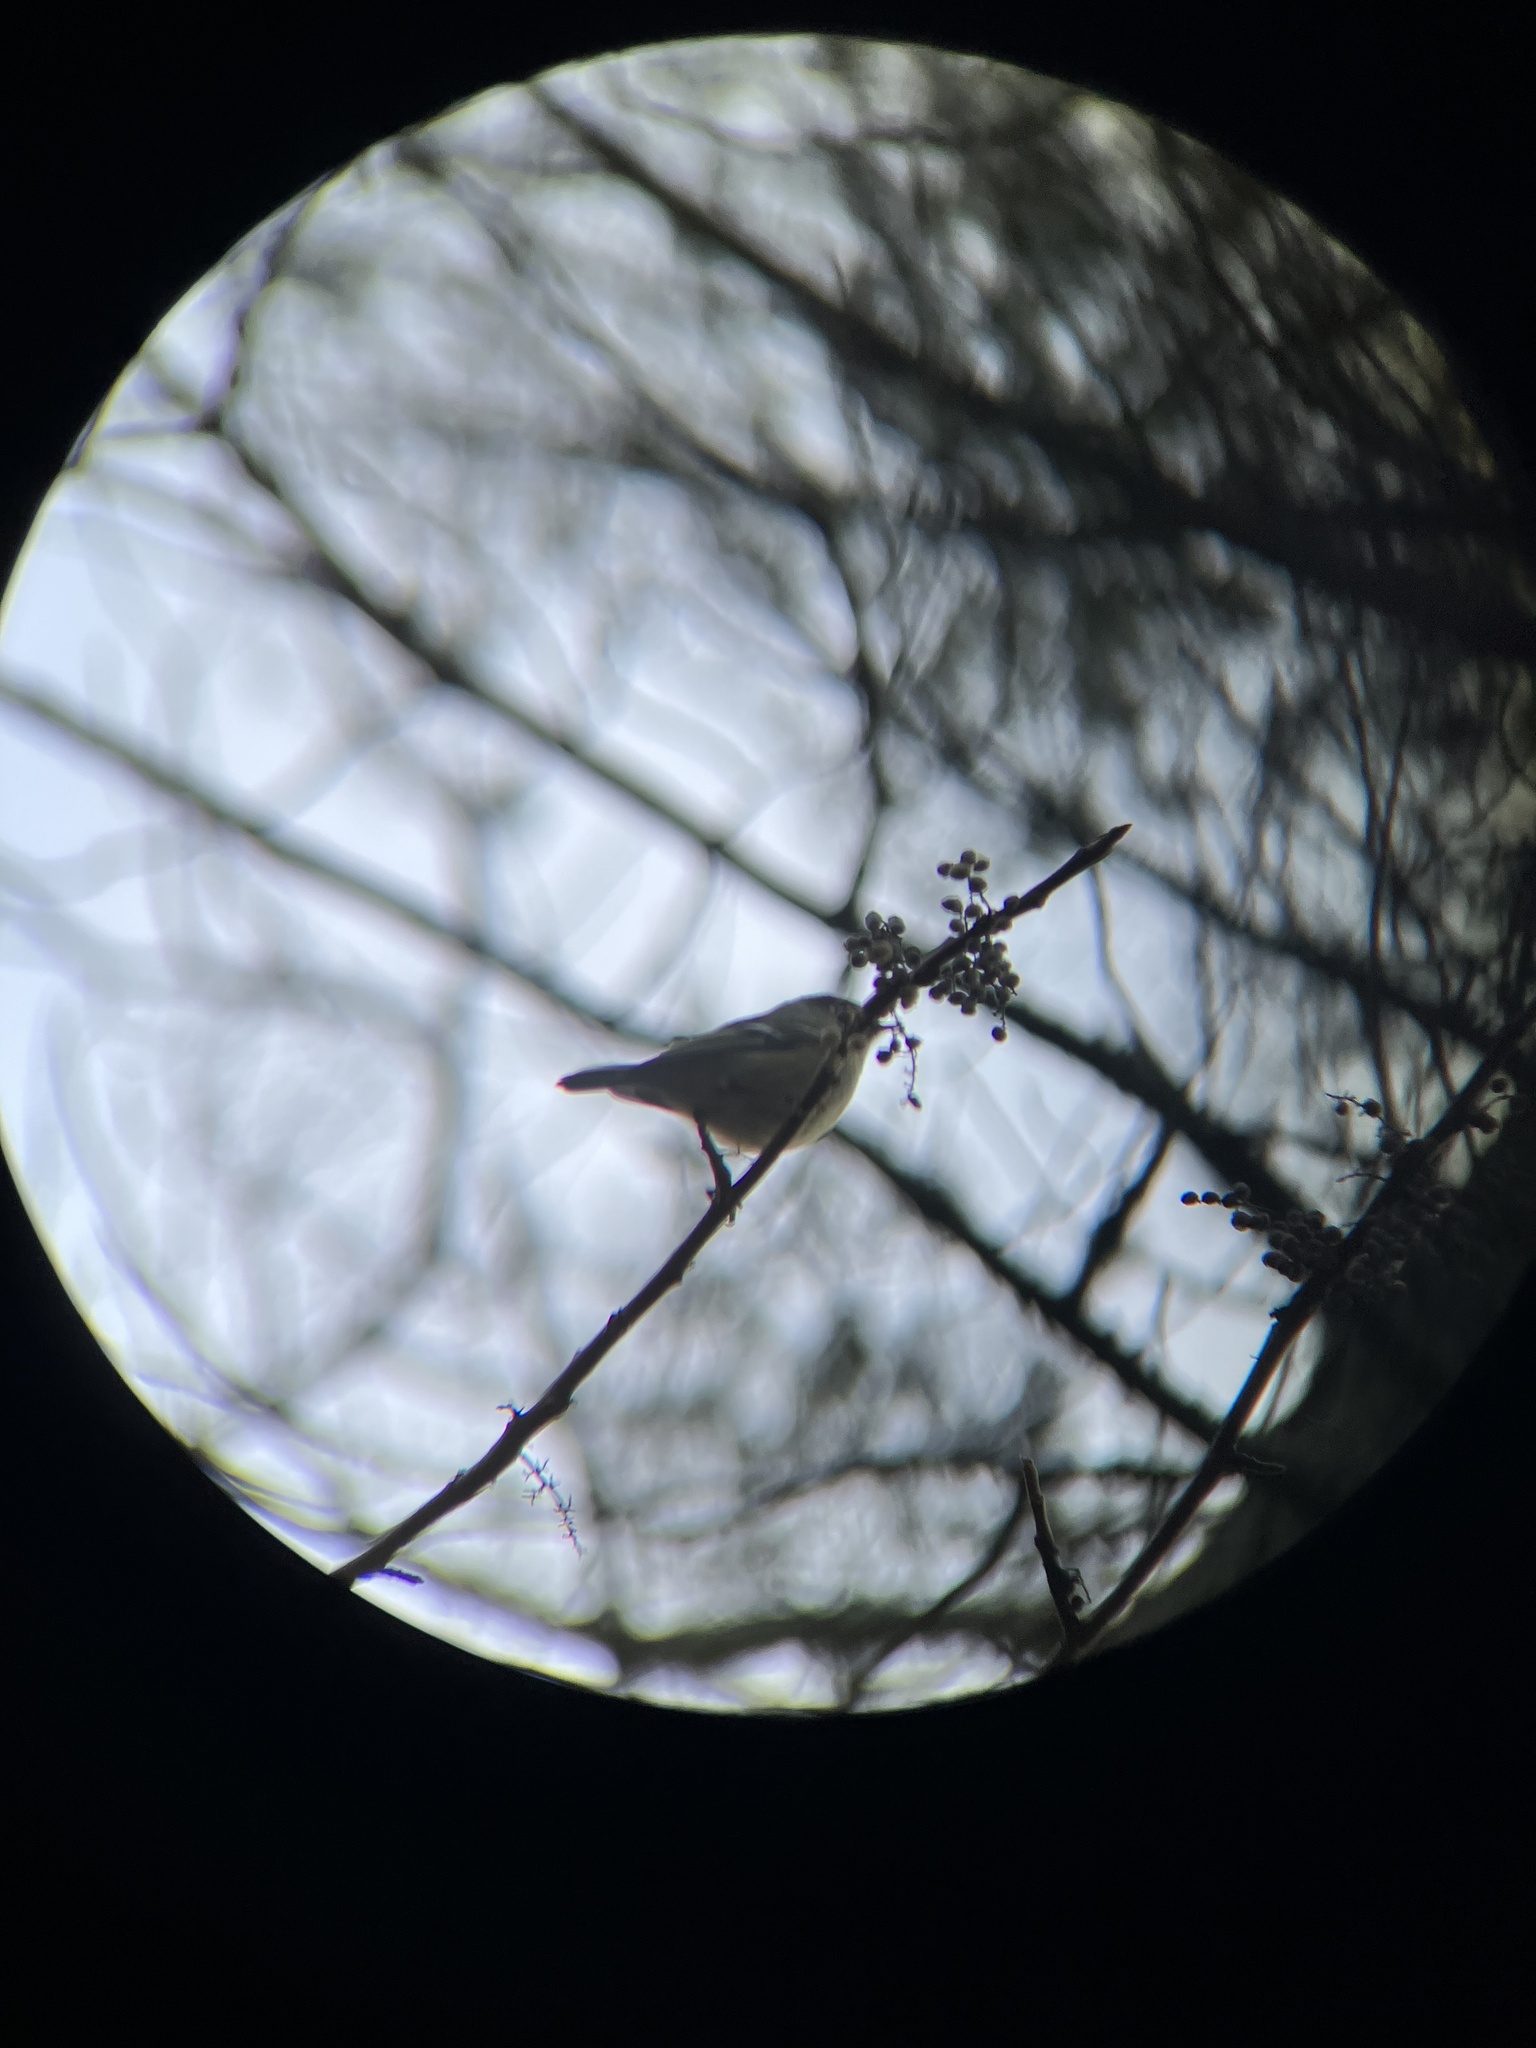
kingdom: Animalia
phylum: Chordata
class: Aves
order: Passeriformes
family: Regulidae
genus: Regulus
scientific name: Regulus calendula
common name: Ruby-crowned kinglet
